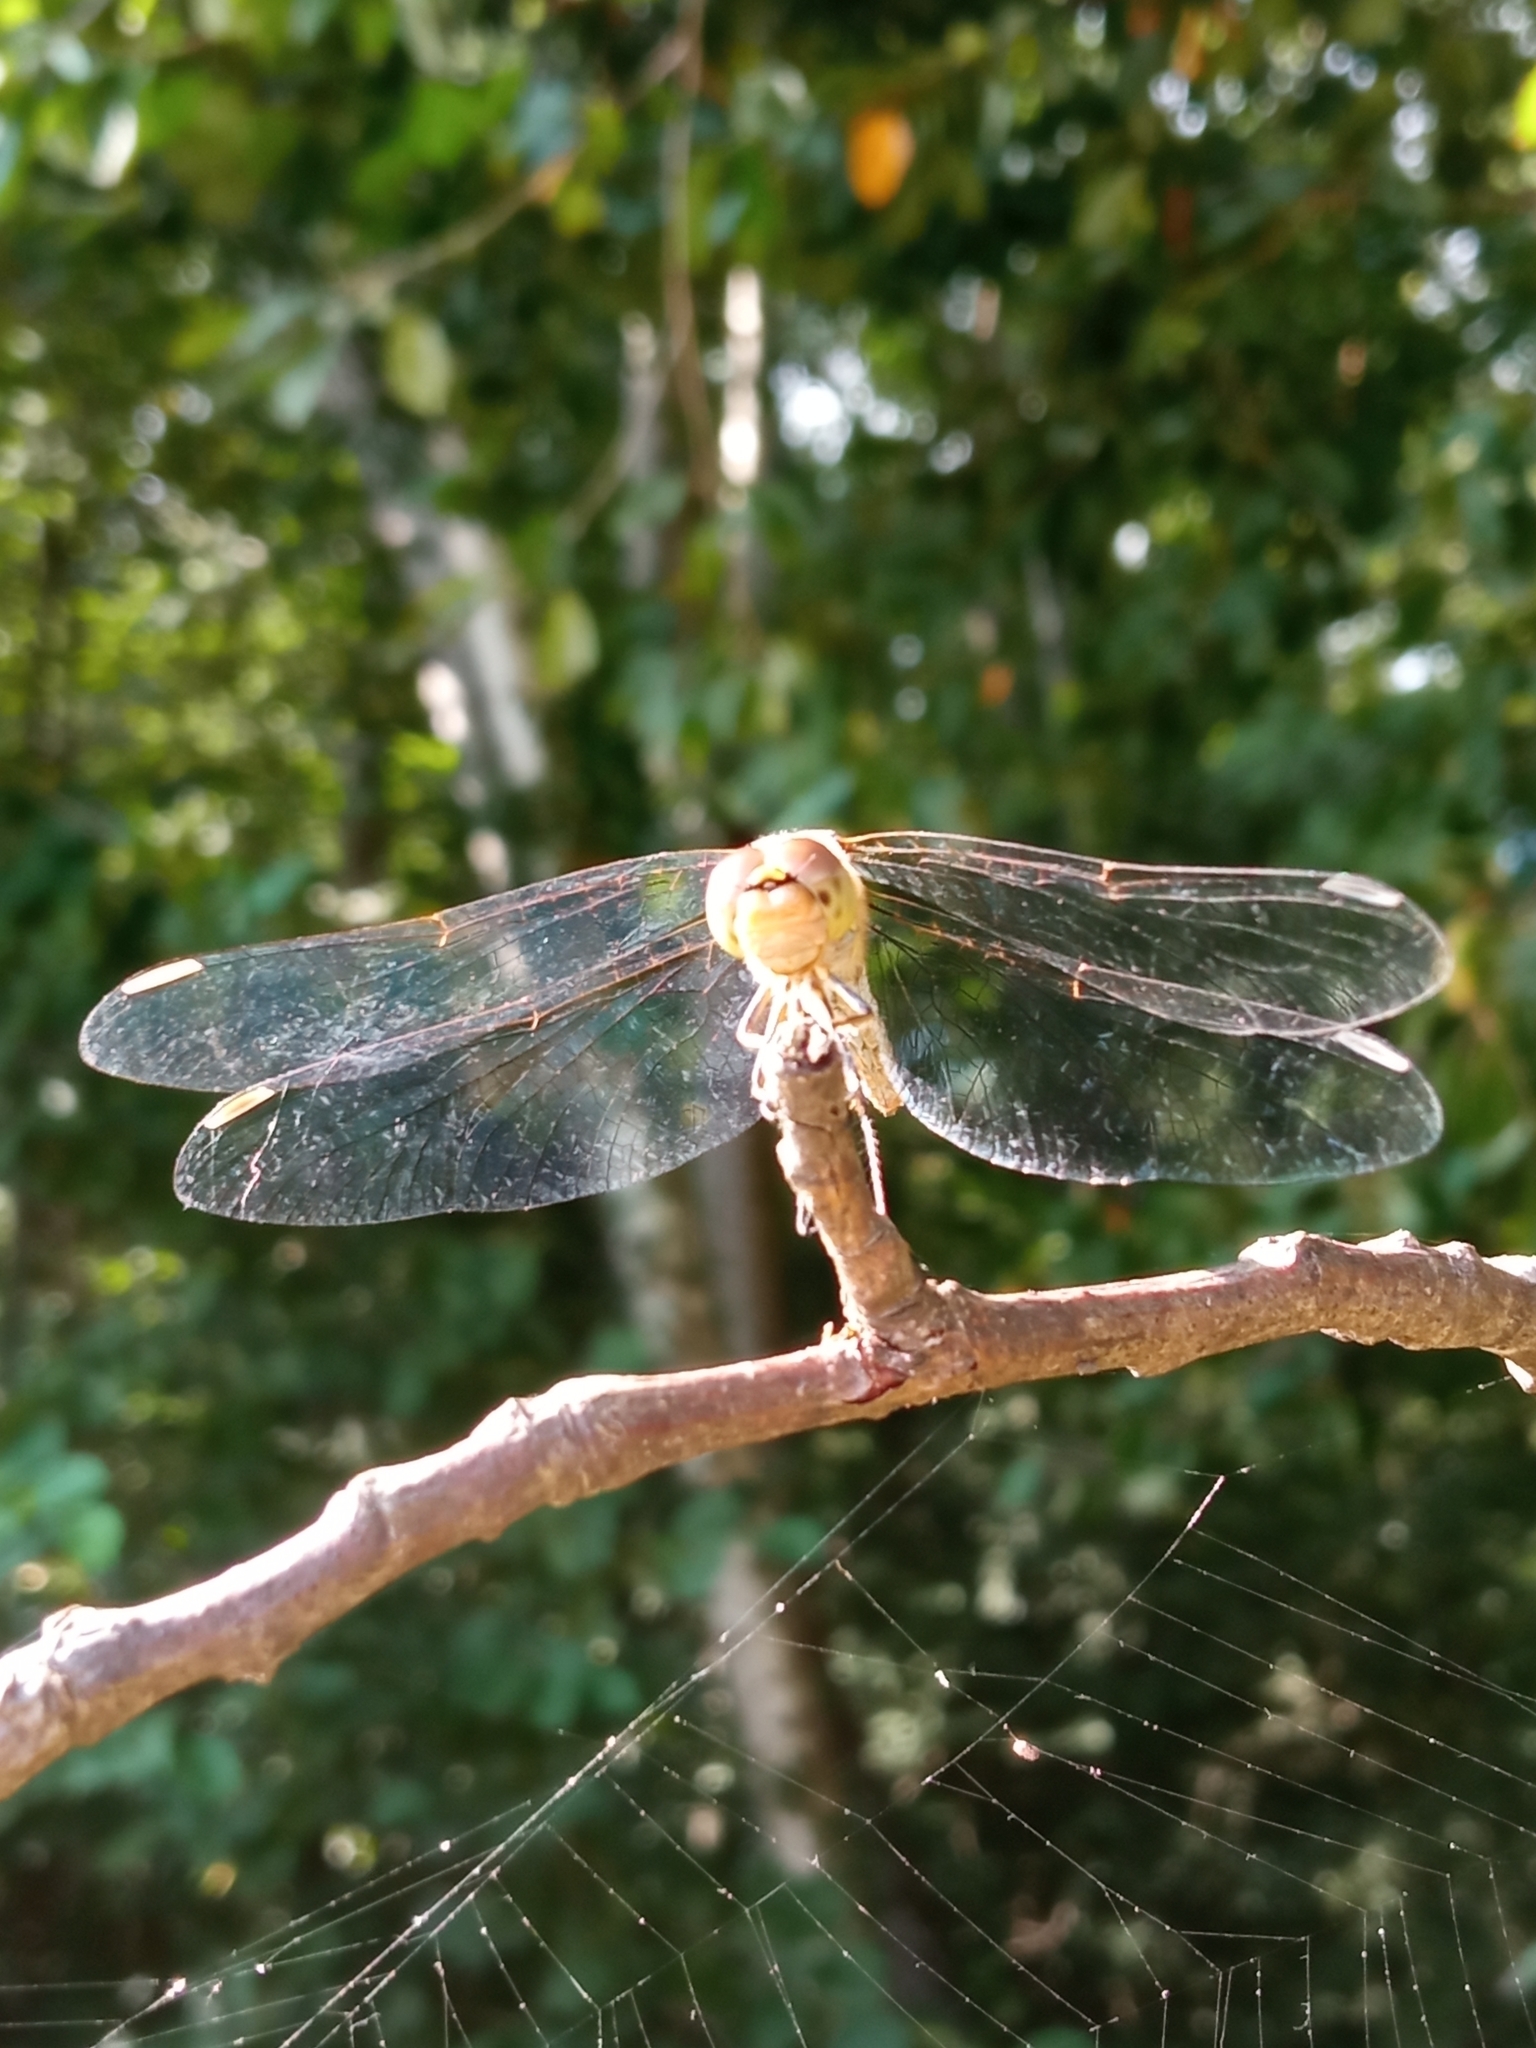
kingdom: Animalia
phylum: Arthropoda
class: Insecta
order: Odonata
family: Libellulidae
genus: Sympetrum
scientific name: Sympetrum striolatum
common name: Common darter
